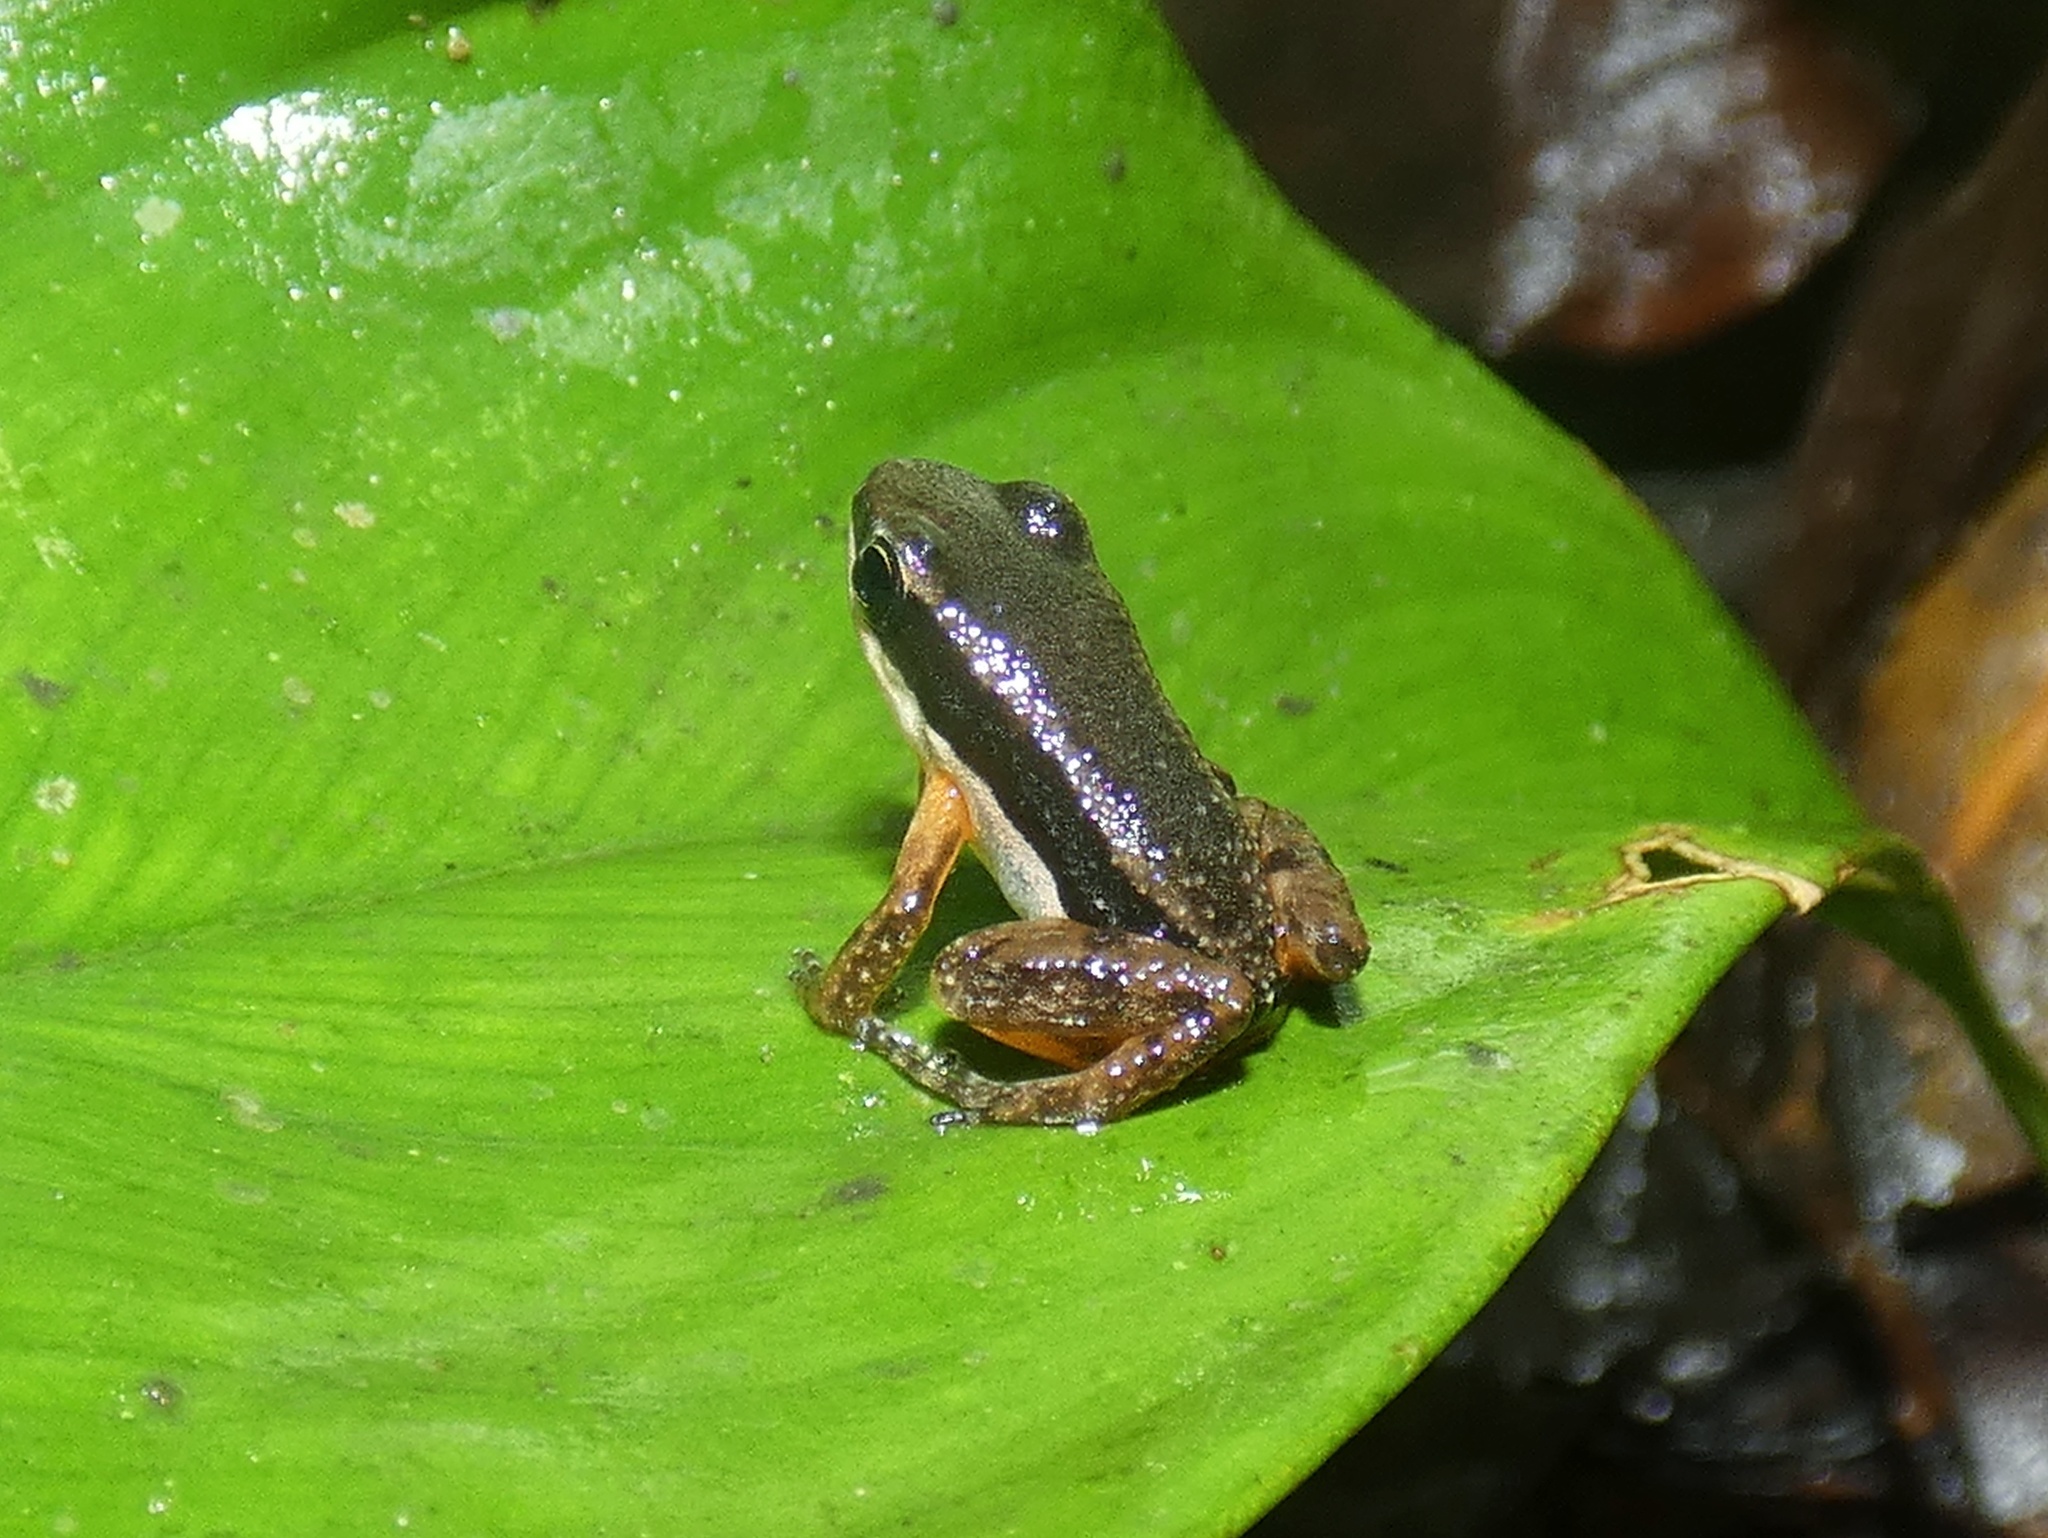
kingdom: Animalia
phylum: Chordata
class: Amphibia
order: Anura
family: Aromobatidae
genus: Allobates
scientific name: Allobates talamancae
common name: Talamanca rocket frog
